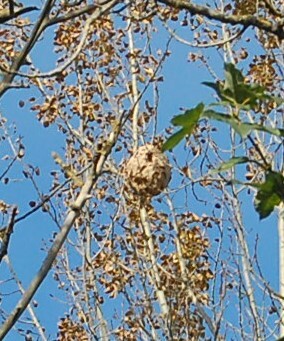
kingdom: Animalia
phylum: Arthropoda
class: Insecta
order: Hymenoptera
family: Vespidae
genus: Vespa
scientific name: Vespa velutina
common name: Asian hornet
